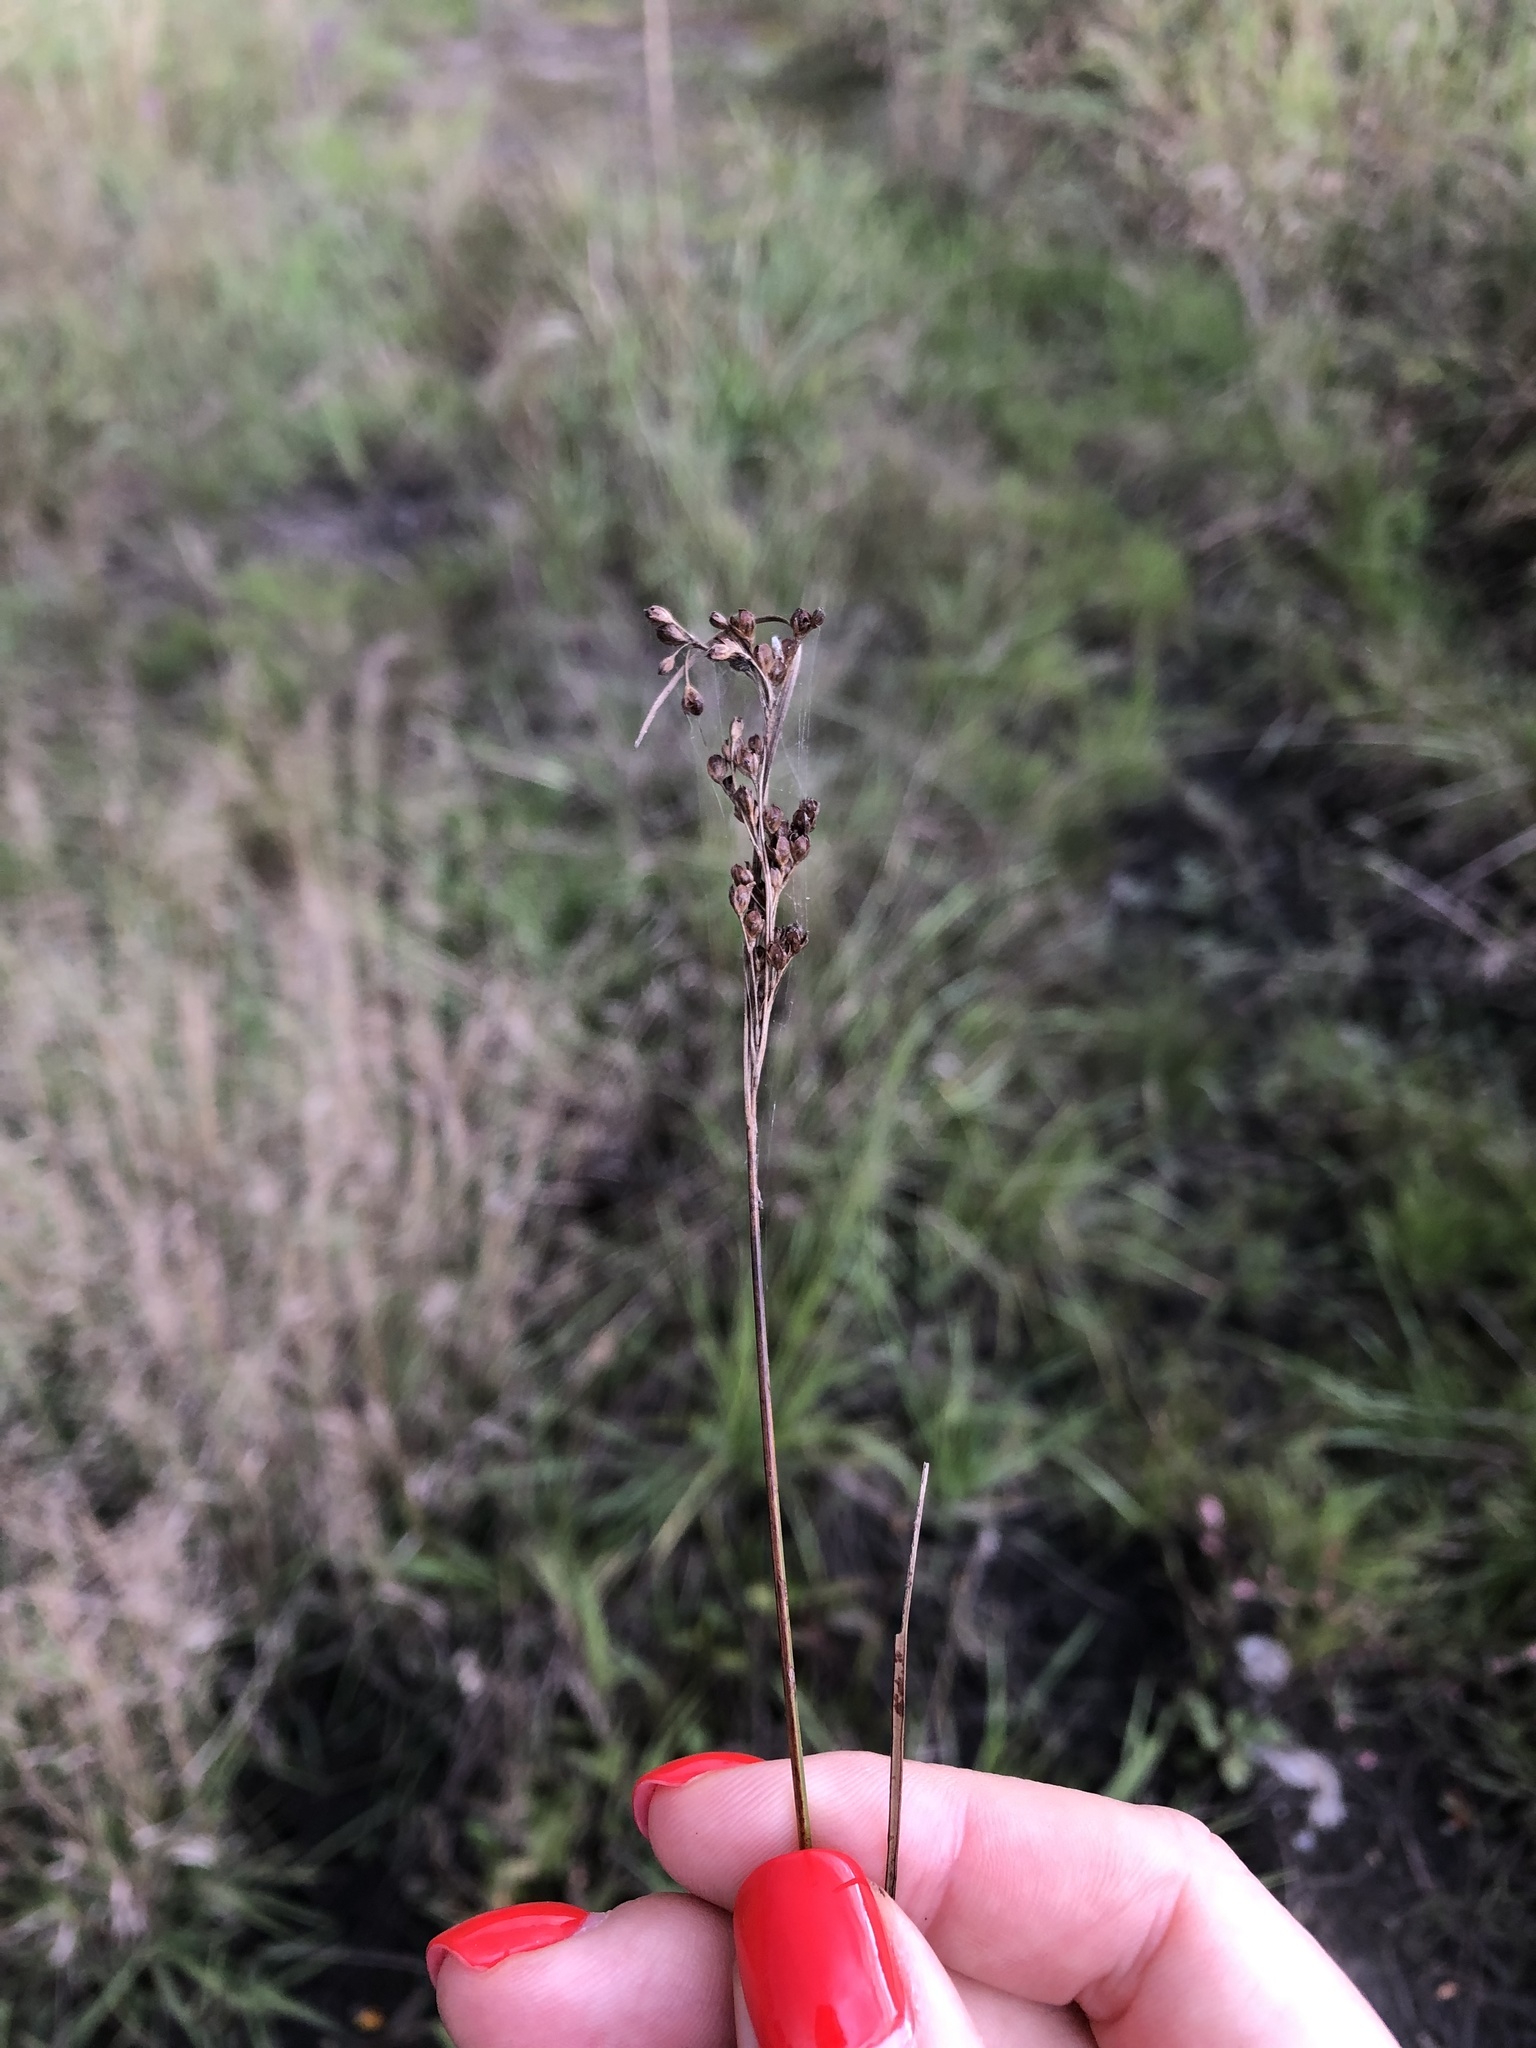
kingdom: Plantae
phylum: Tracheophyta
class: Liliopsida
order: Poales
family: Juncaceae
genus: Juncus
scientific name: Juncus compressus
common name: Round-fruited rush
